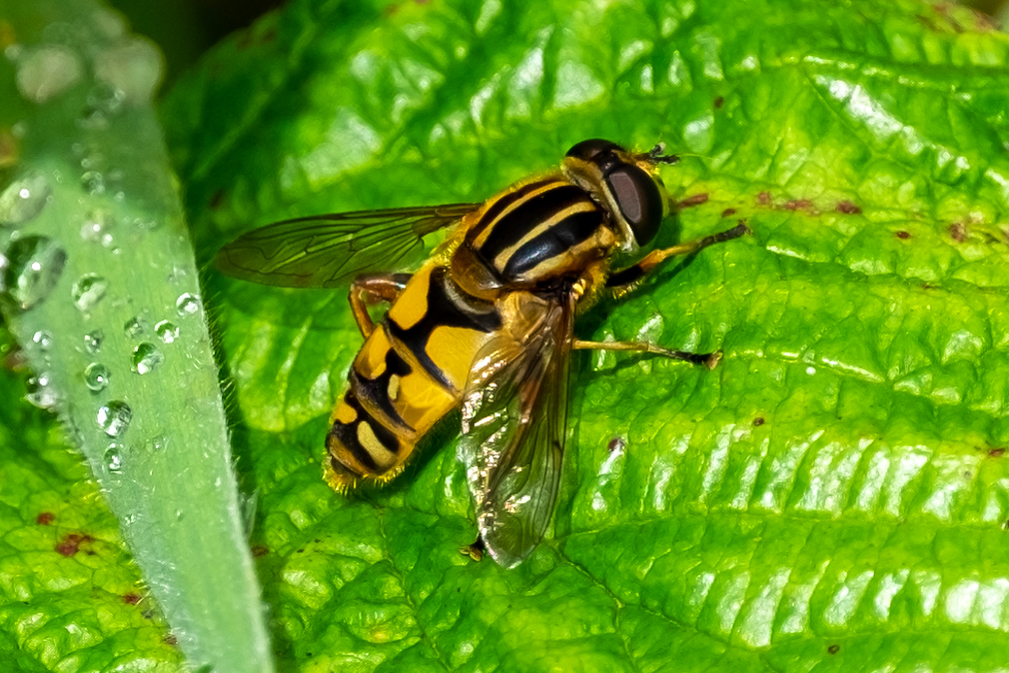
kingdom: Animalia
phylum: Arthropoda
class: Insecta
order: Diptera
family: Syrphidae
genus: Helophilus
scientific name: Helophilus pendulus
